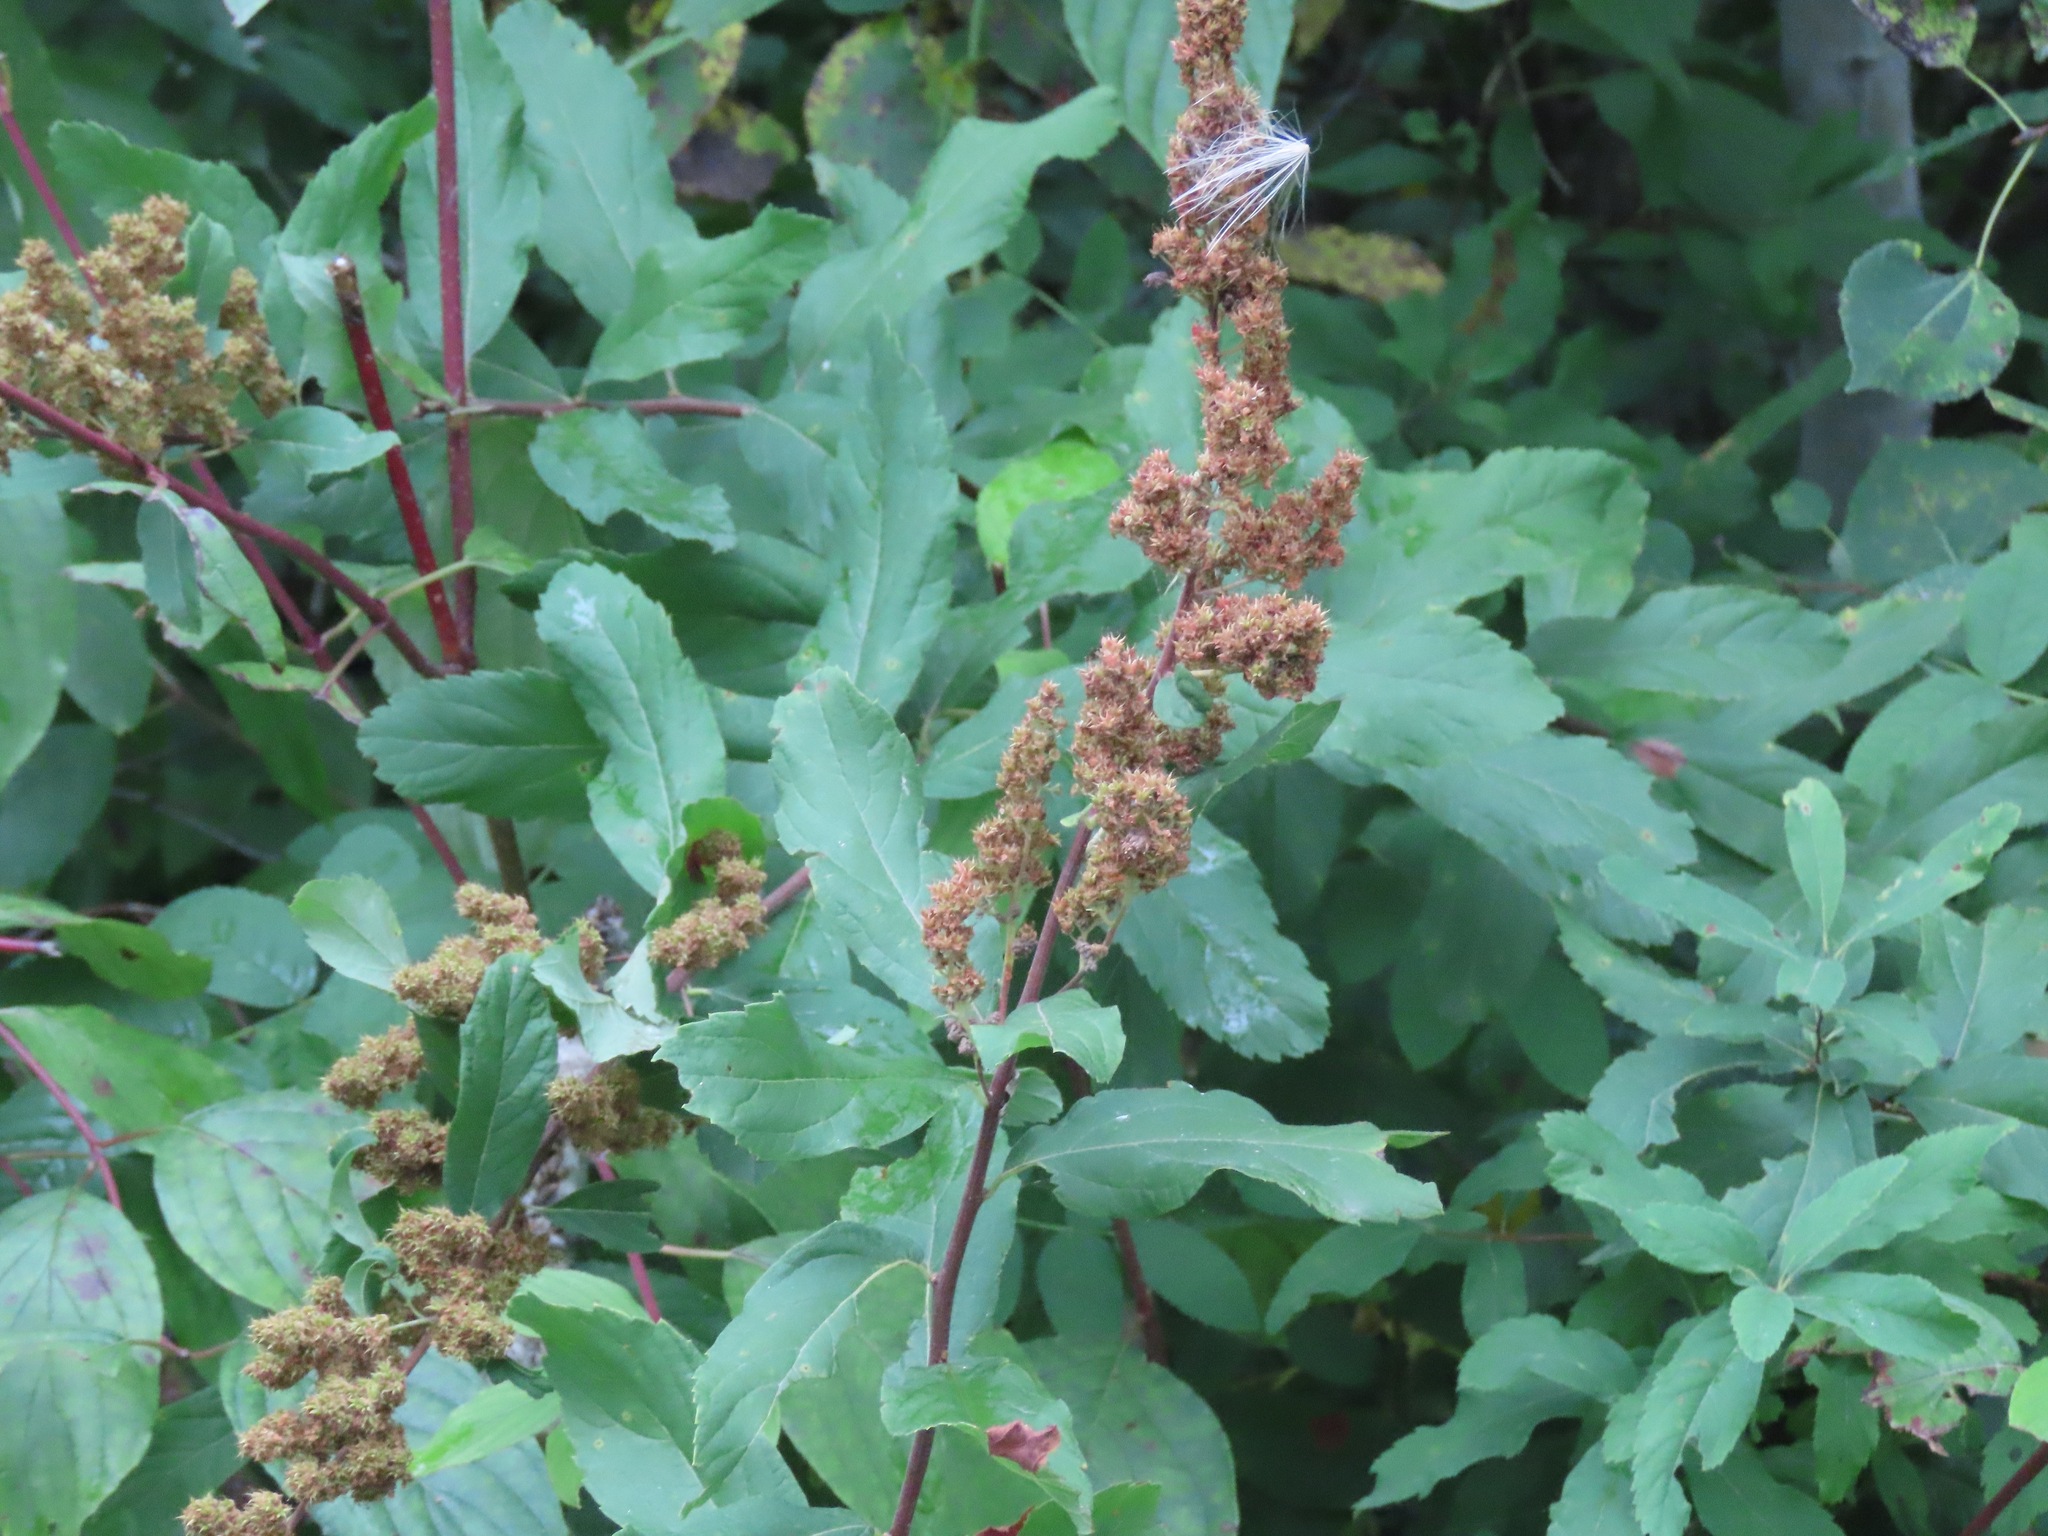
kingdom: Plantae
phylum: Tracheophyta
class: Magnoliopsida
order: Rosales
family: Rosaceae
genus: Spiraea
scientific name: Spiraea douglasii
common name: Steeplebush
